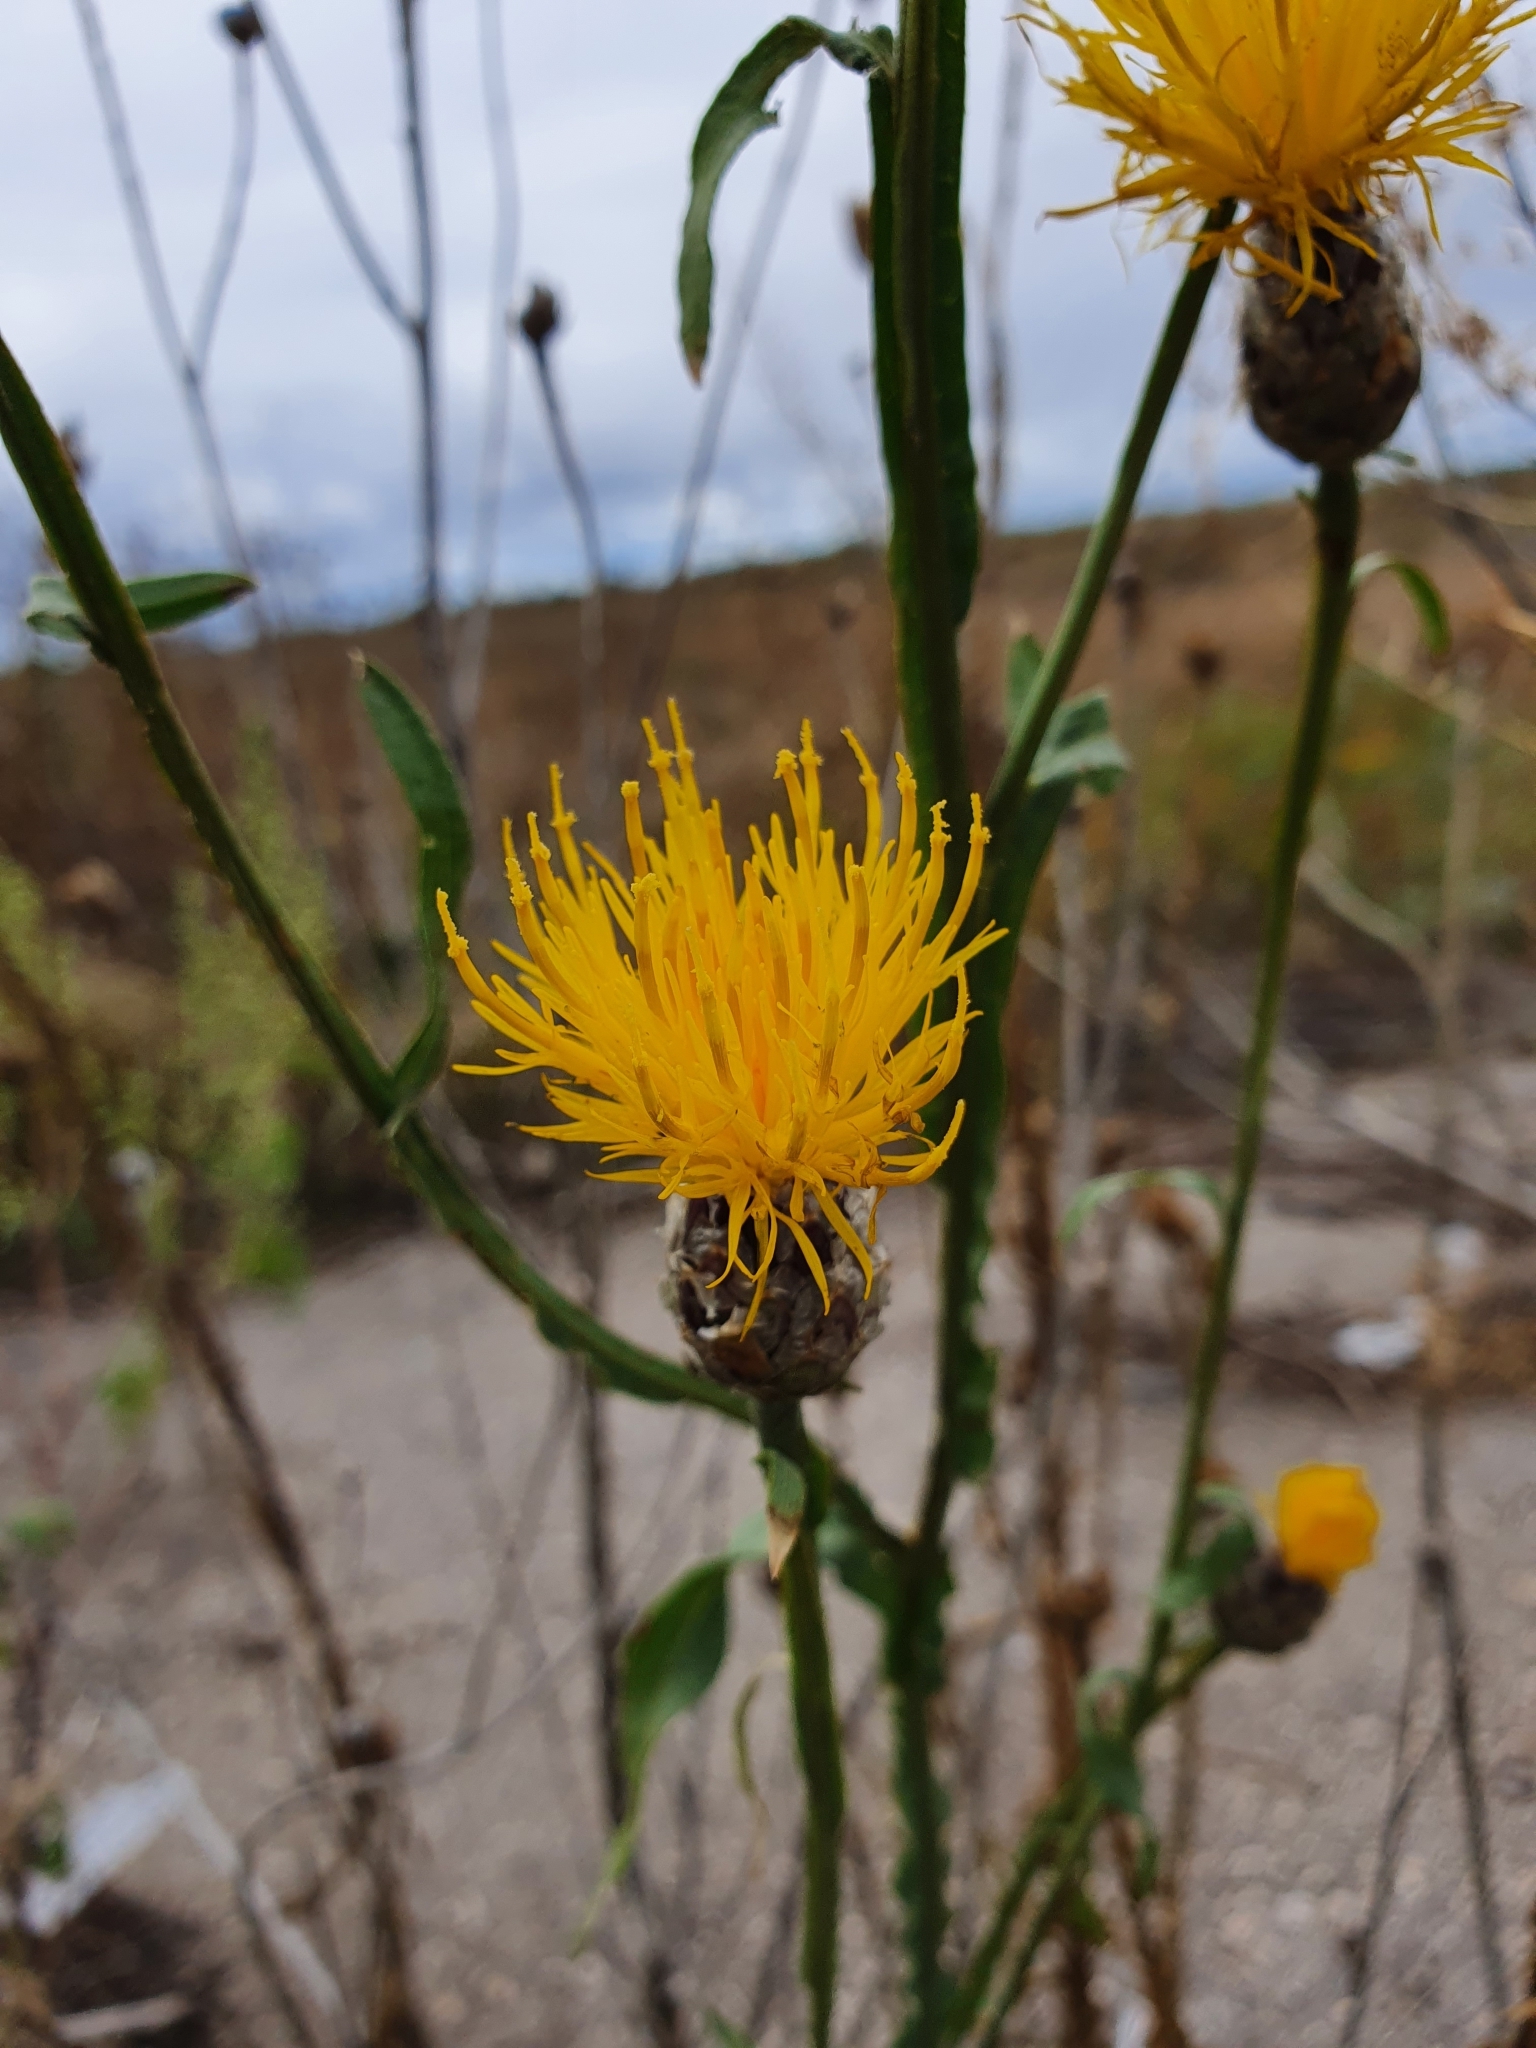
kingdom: Plantae
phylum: Tracheophyta
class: Magnoliopsida
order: Asterales
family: Asteraceae
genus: Centaurea
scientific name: Centaurea glastifolia
